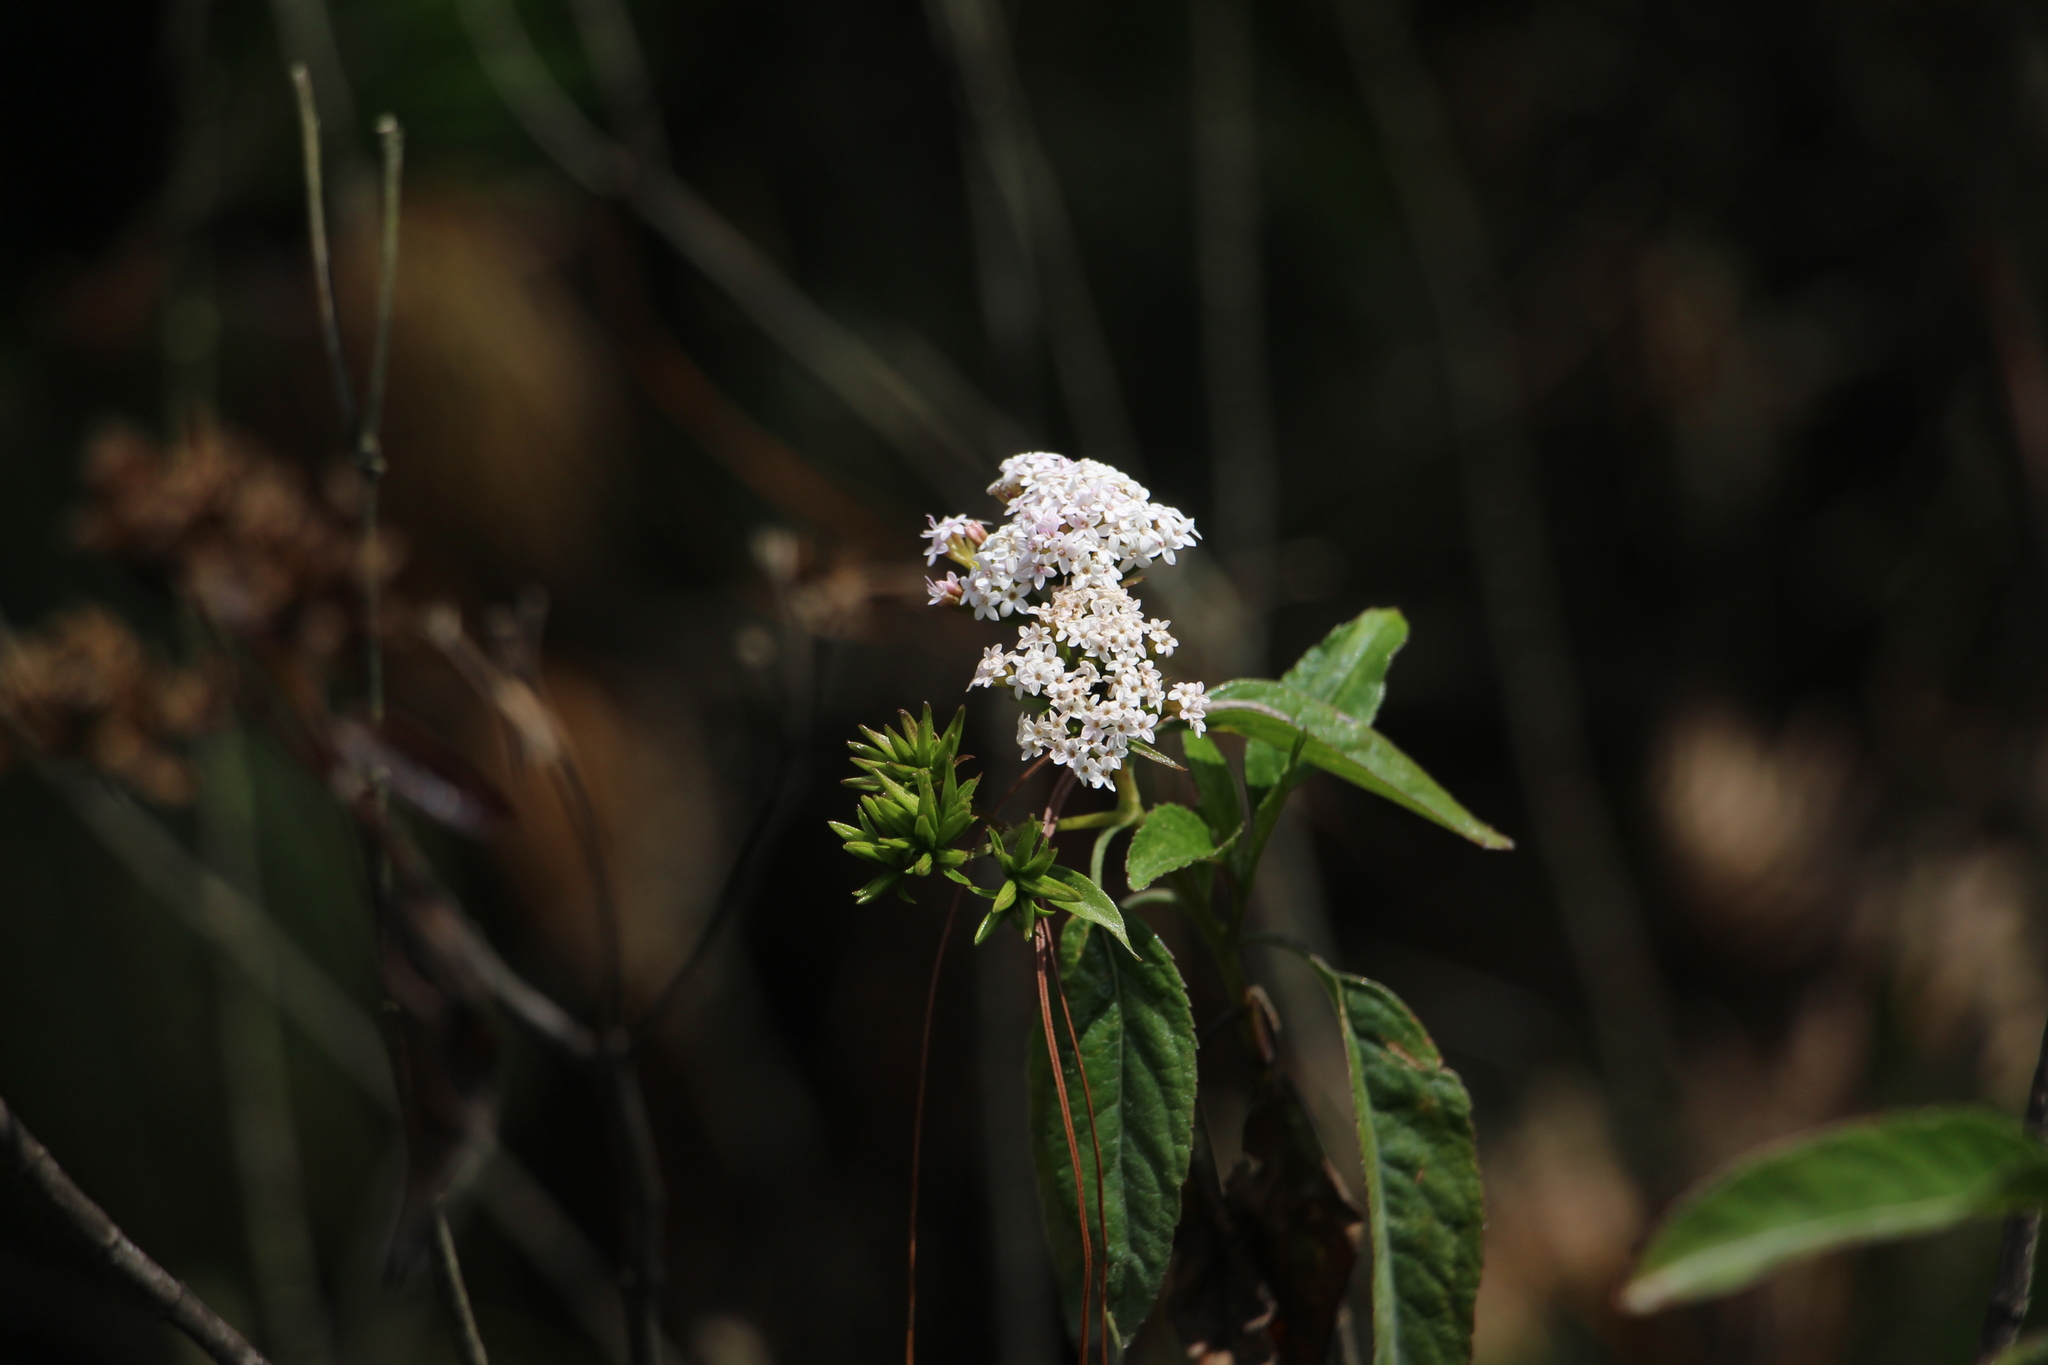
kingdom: Plantae
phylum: Tracheophyta
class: Magnoliopsida
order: Asterales
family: Asteraceae
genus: Stevia
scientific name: Stevia lucida
